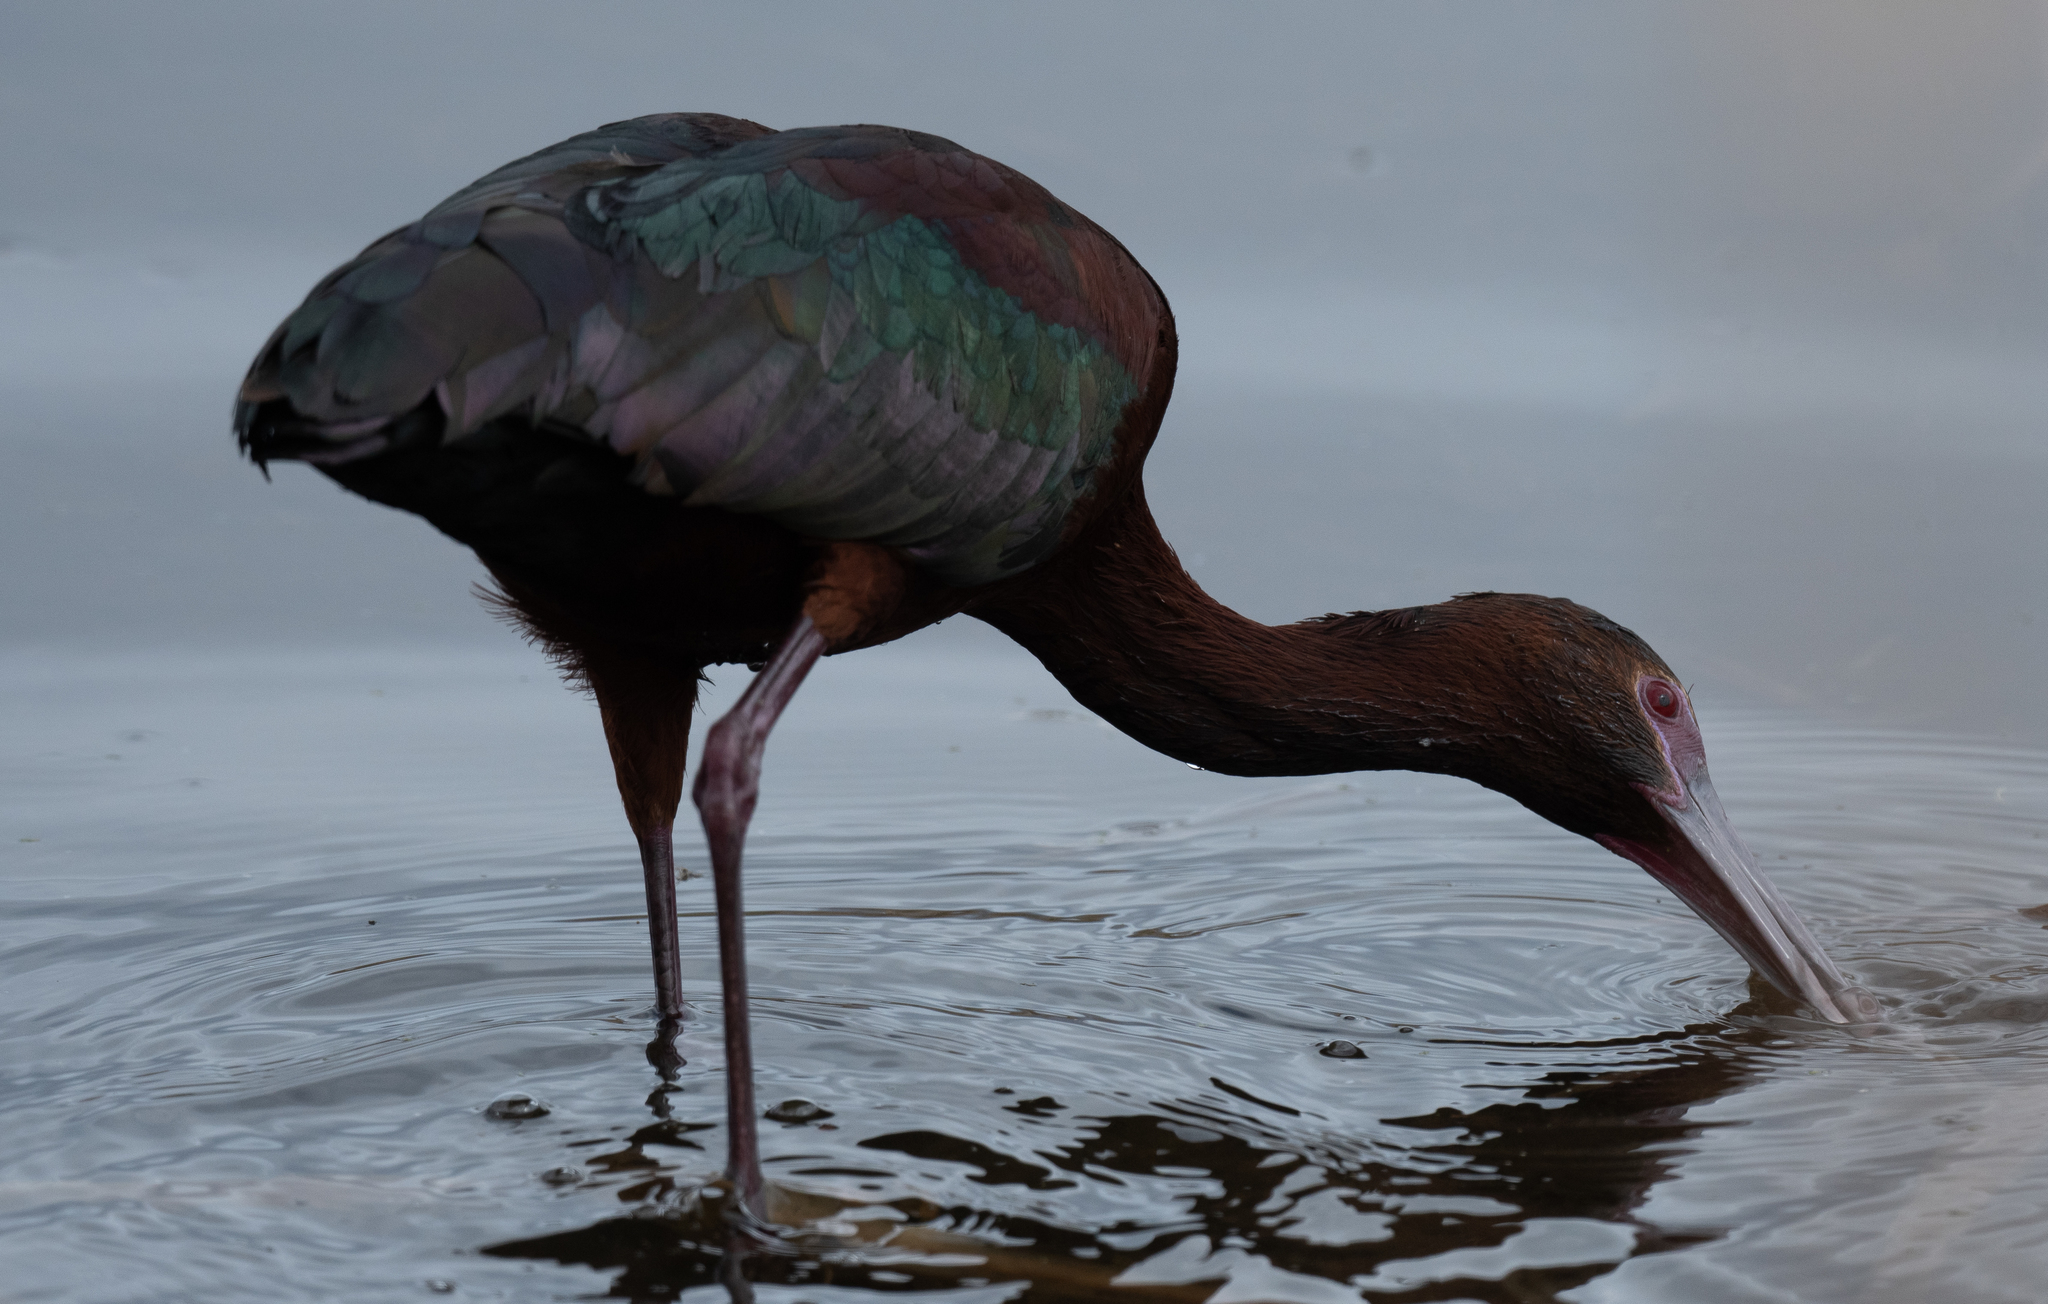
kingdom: Animalia
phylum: Chordata
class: Aves
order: Pelecaniformes
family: Threskiornithidae
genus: Plegadis
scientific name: Plegadis chihi
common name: White-faced ibis
